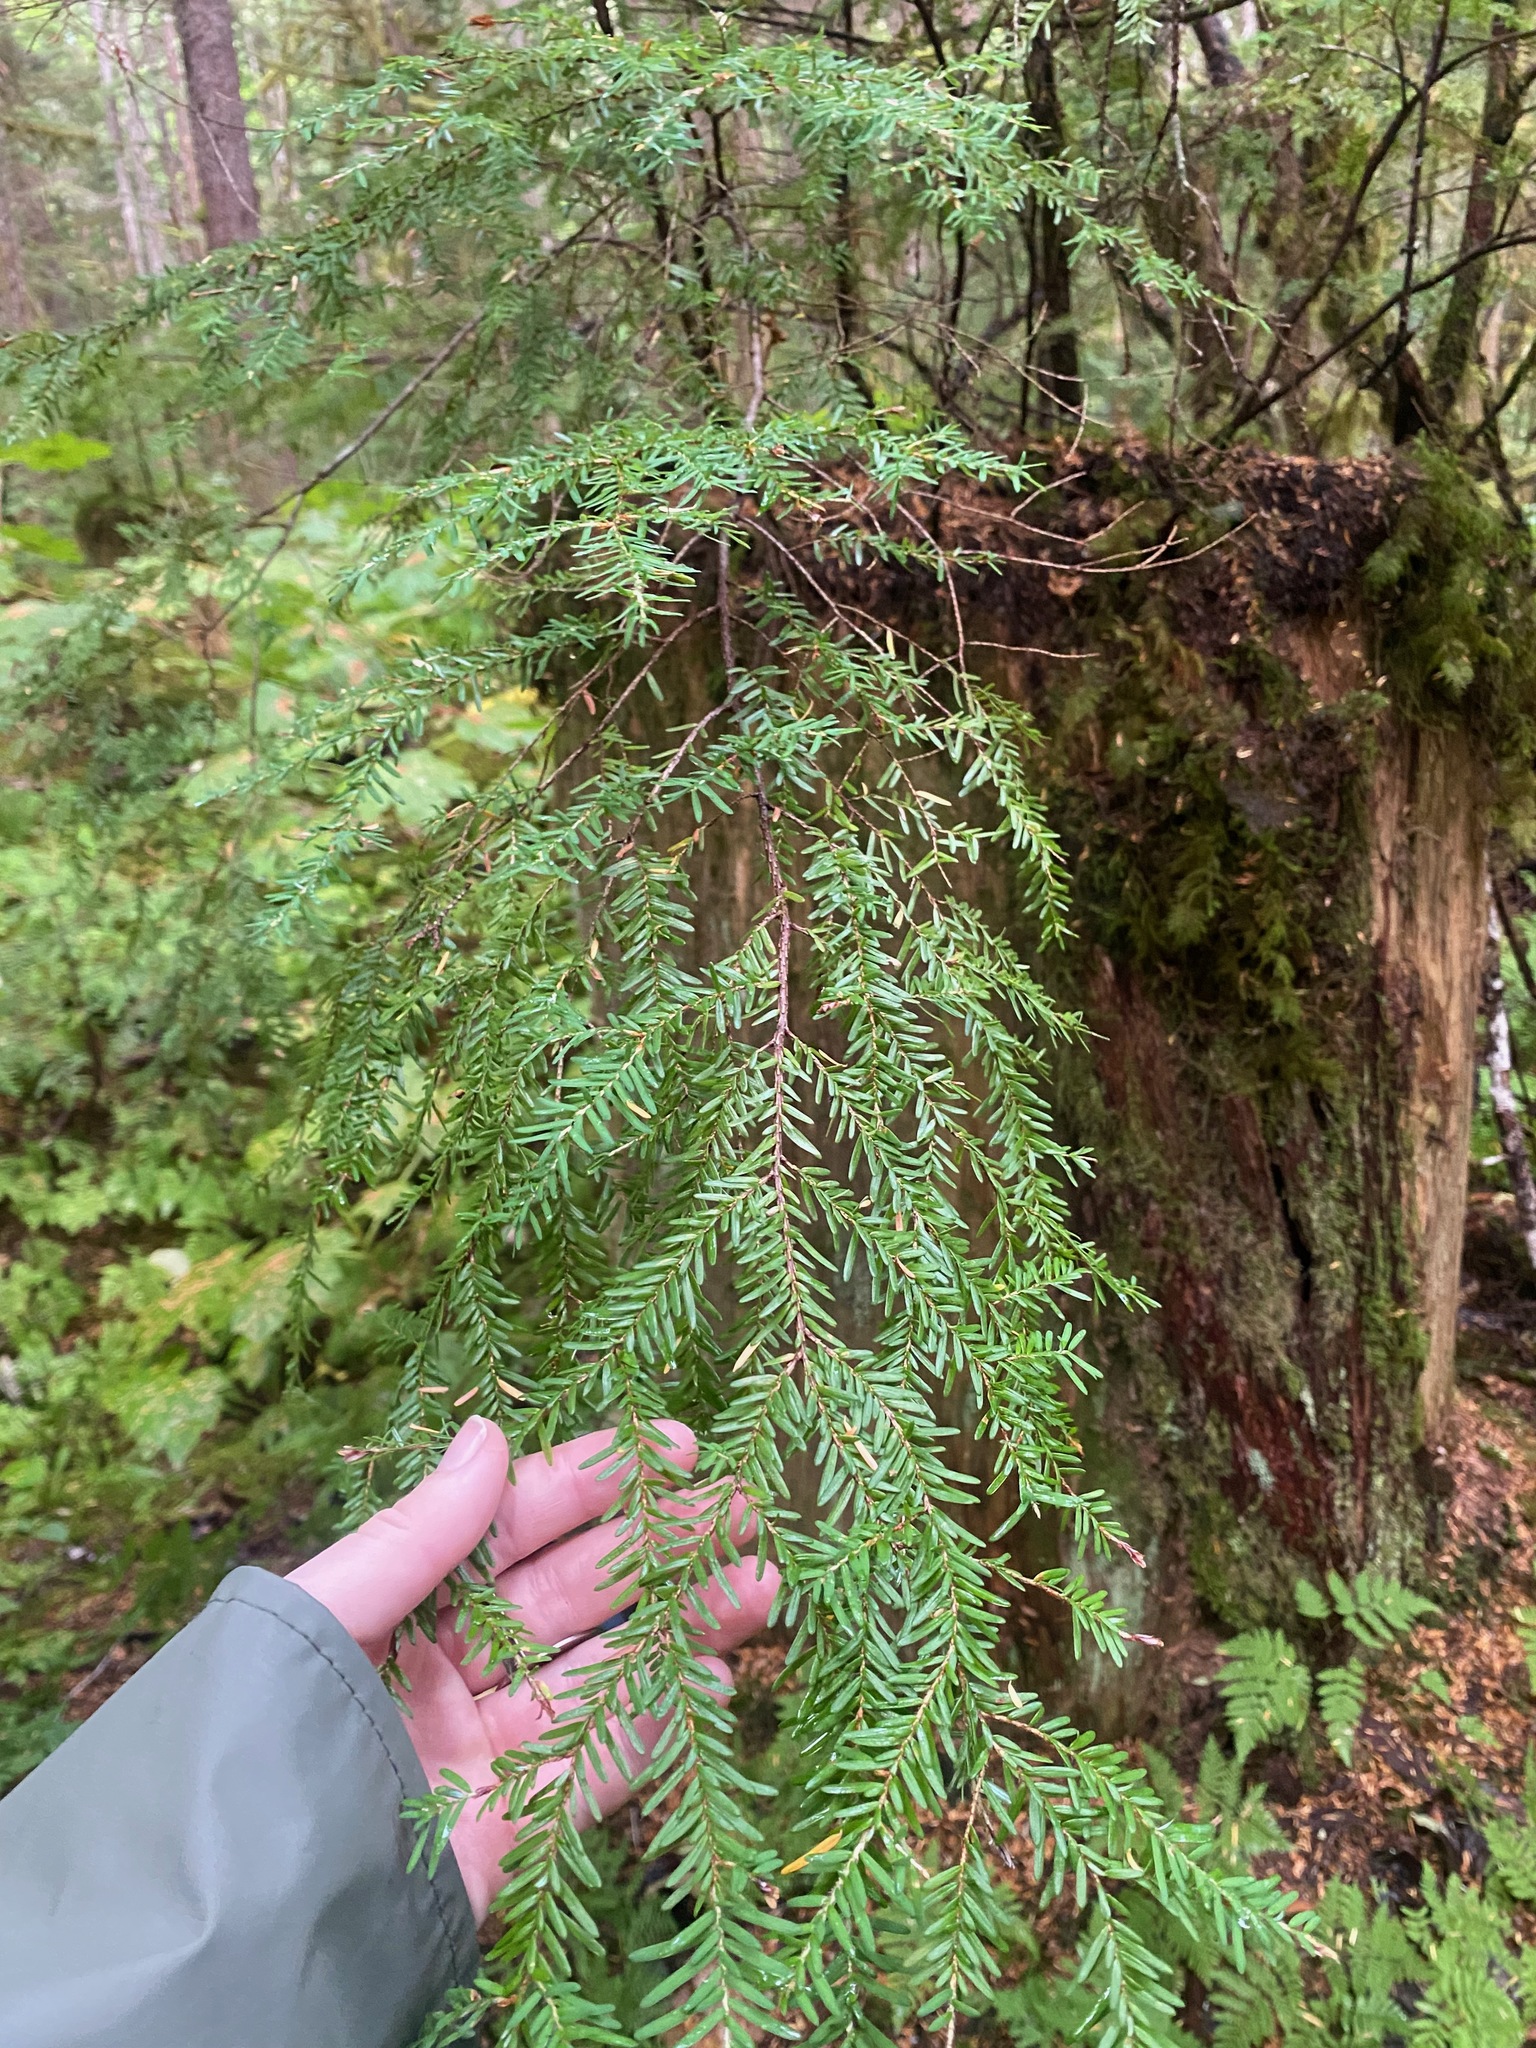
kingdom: Plantae
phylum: Tracheophyta
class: Pinopsida
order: Pinales
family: Pinaceae
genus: Tsuga
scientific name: Tsuga heterophylla
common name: Western hemlock
